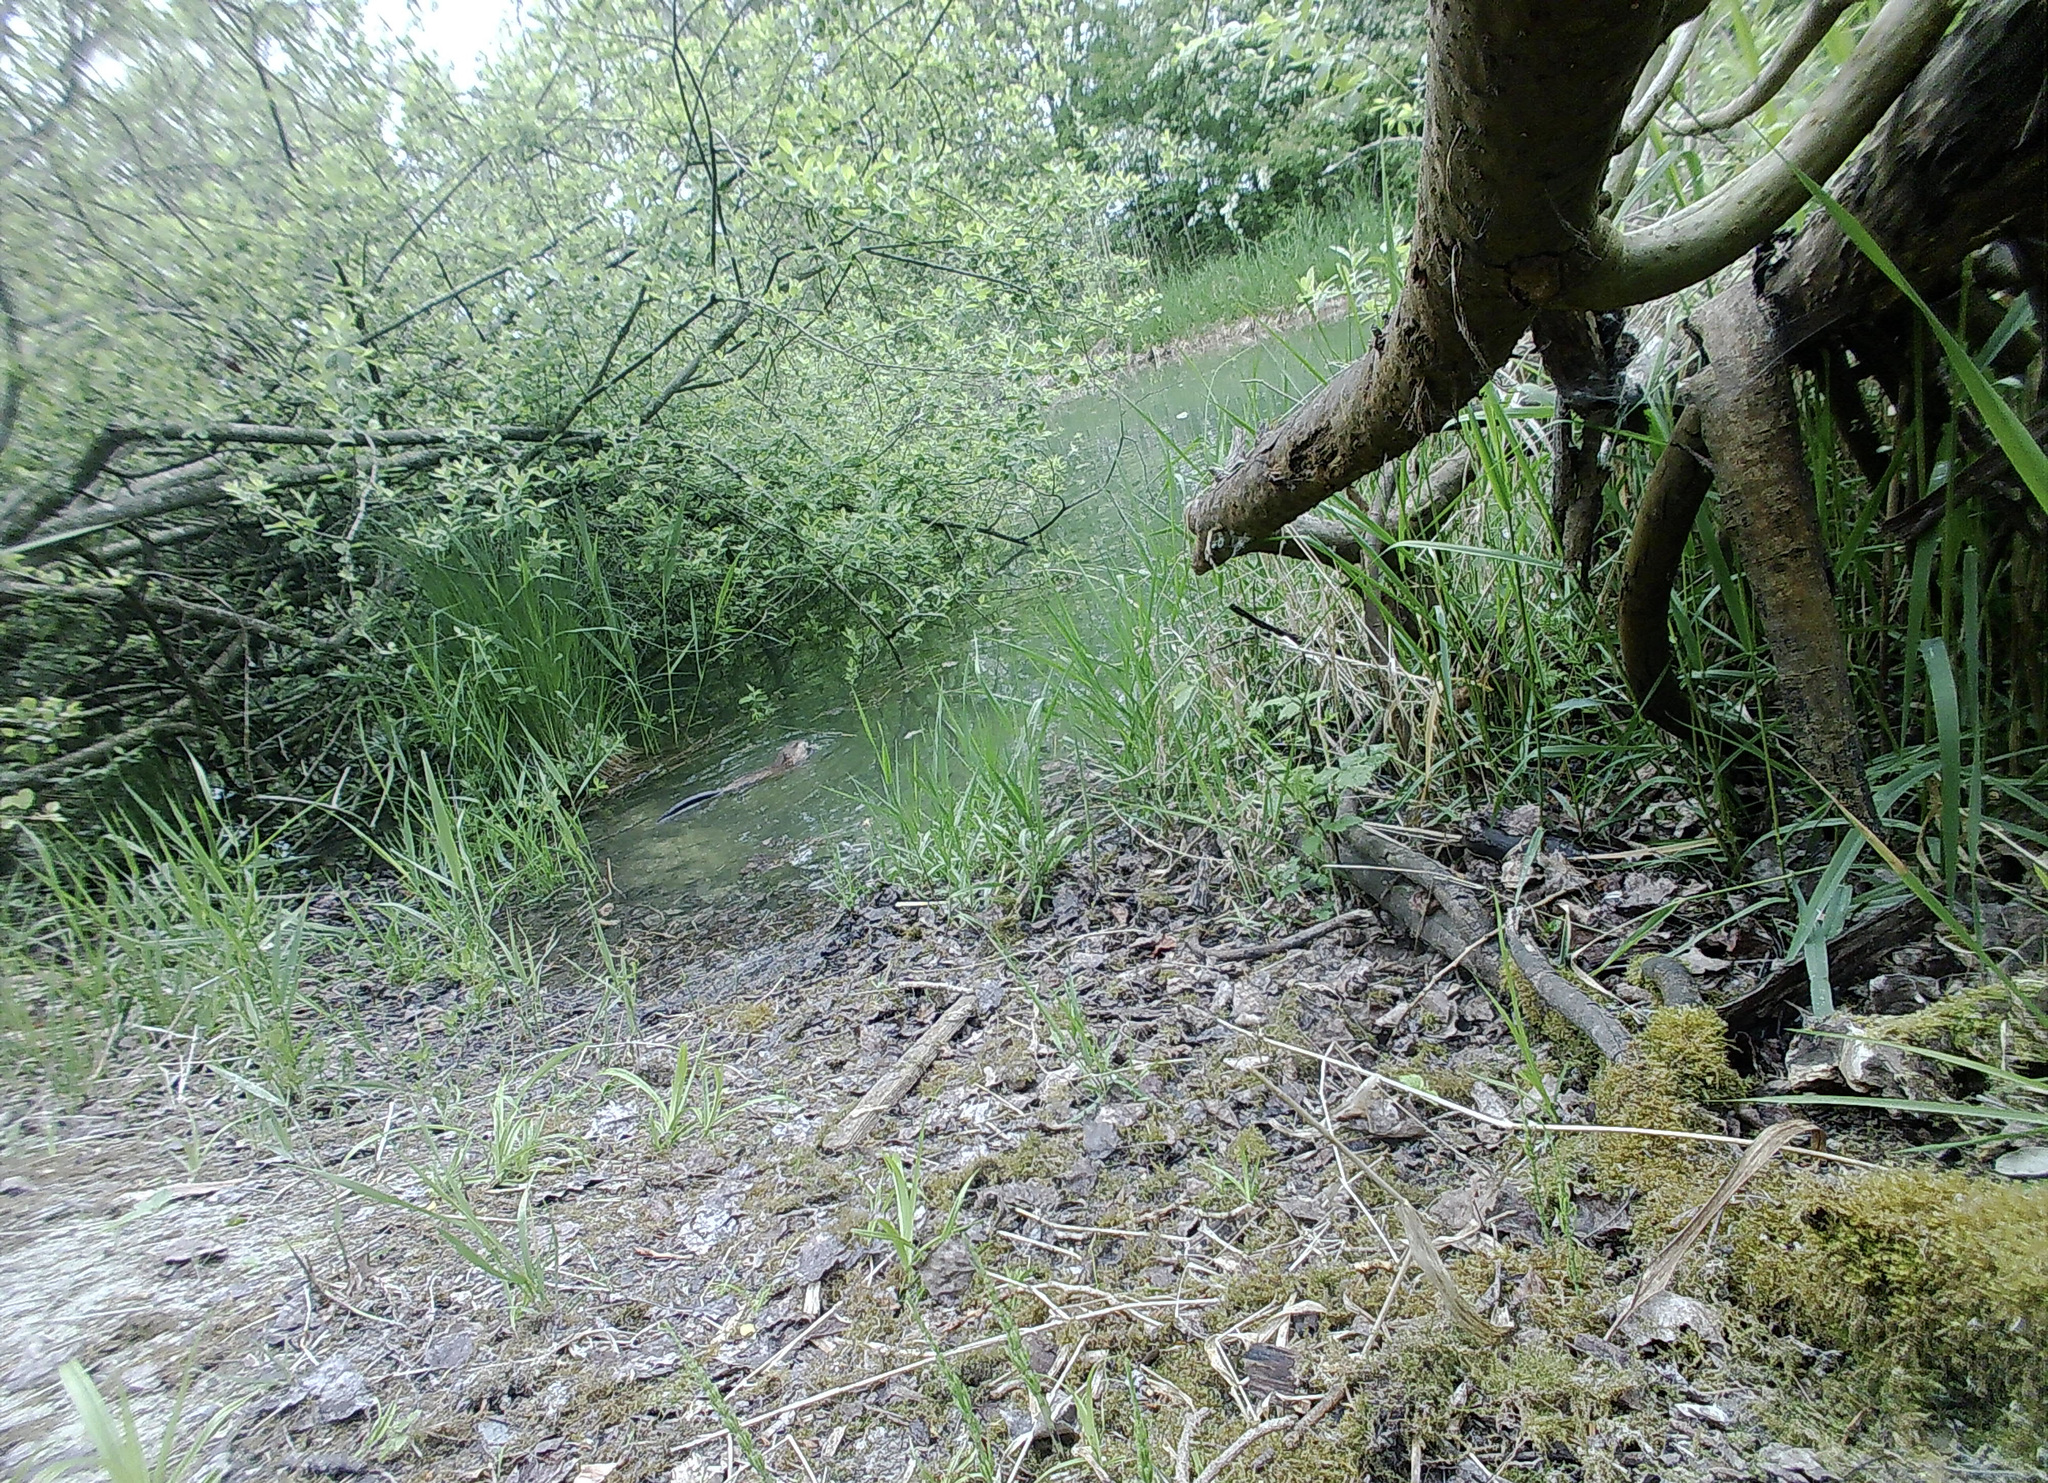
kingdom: Animalia
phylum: Chordata
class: Mammalia
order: Rodentia
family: Cricetidae
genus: Ondatra
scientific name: Ondatra zibethicus
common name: Muskrat
